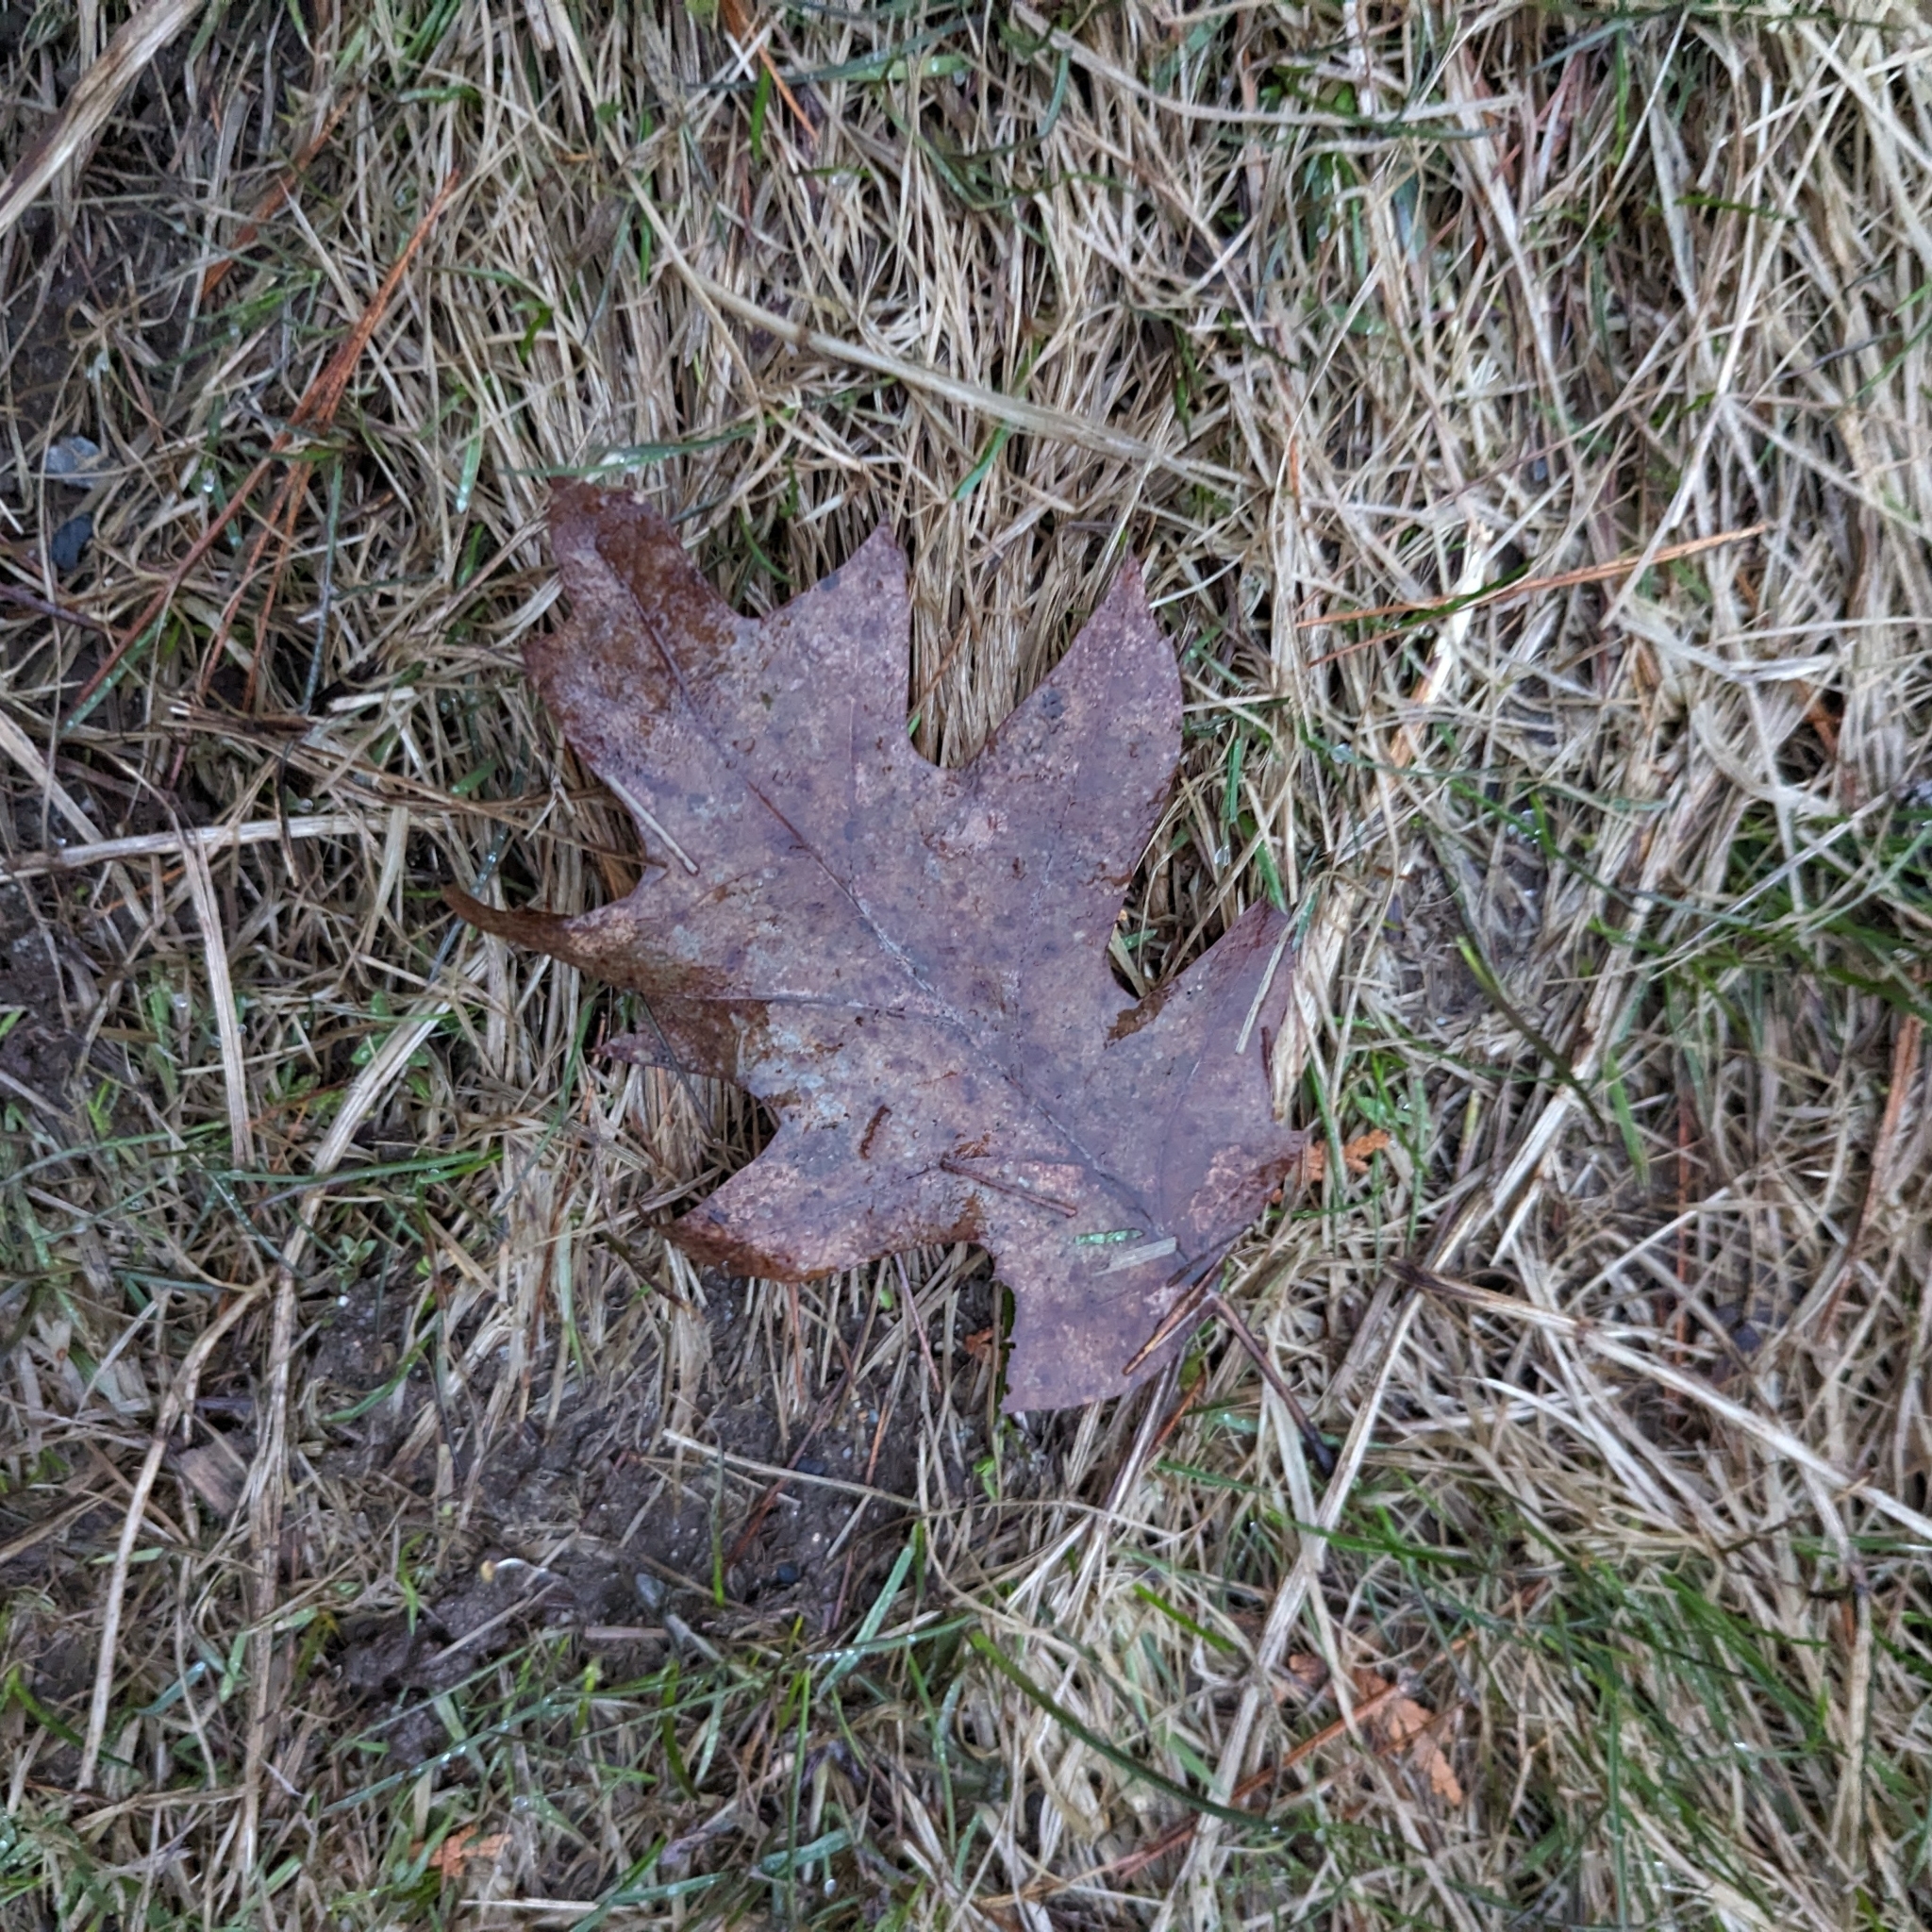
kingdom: Plantae
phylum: Tracheophyta
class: Magnoliopsida
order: Fagales
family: Fagaceae
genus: Quercus
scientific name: Quercus rubra
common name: Red oak
